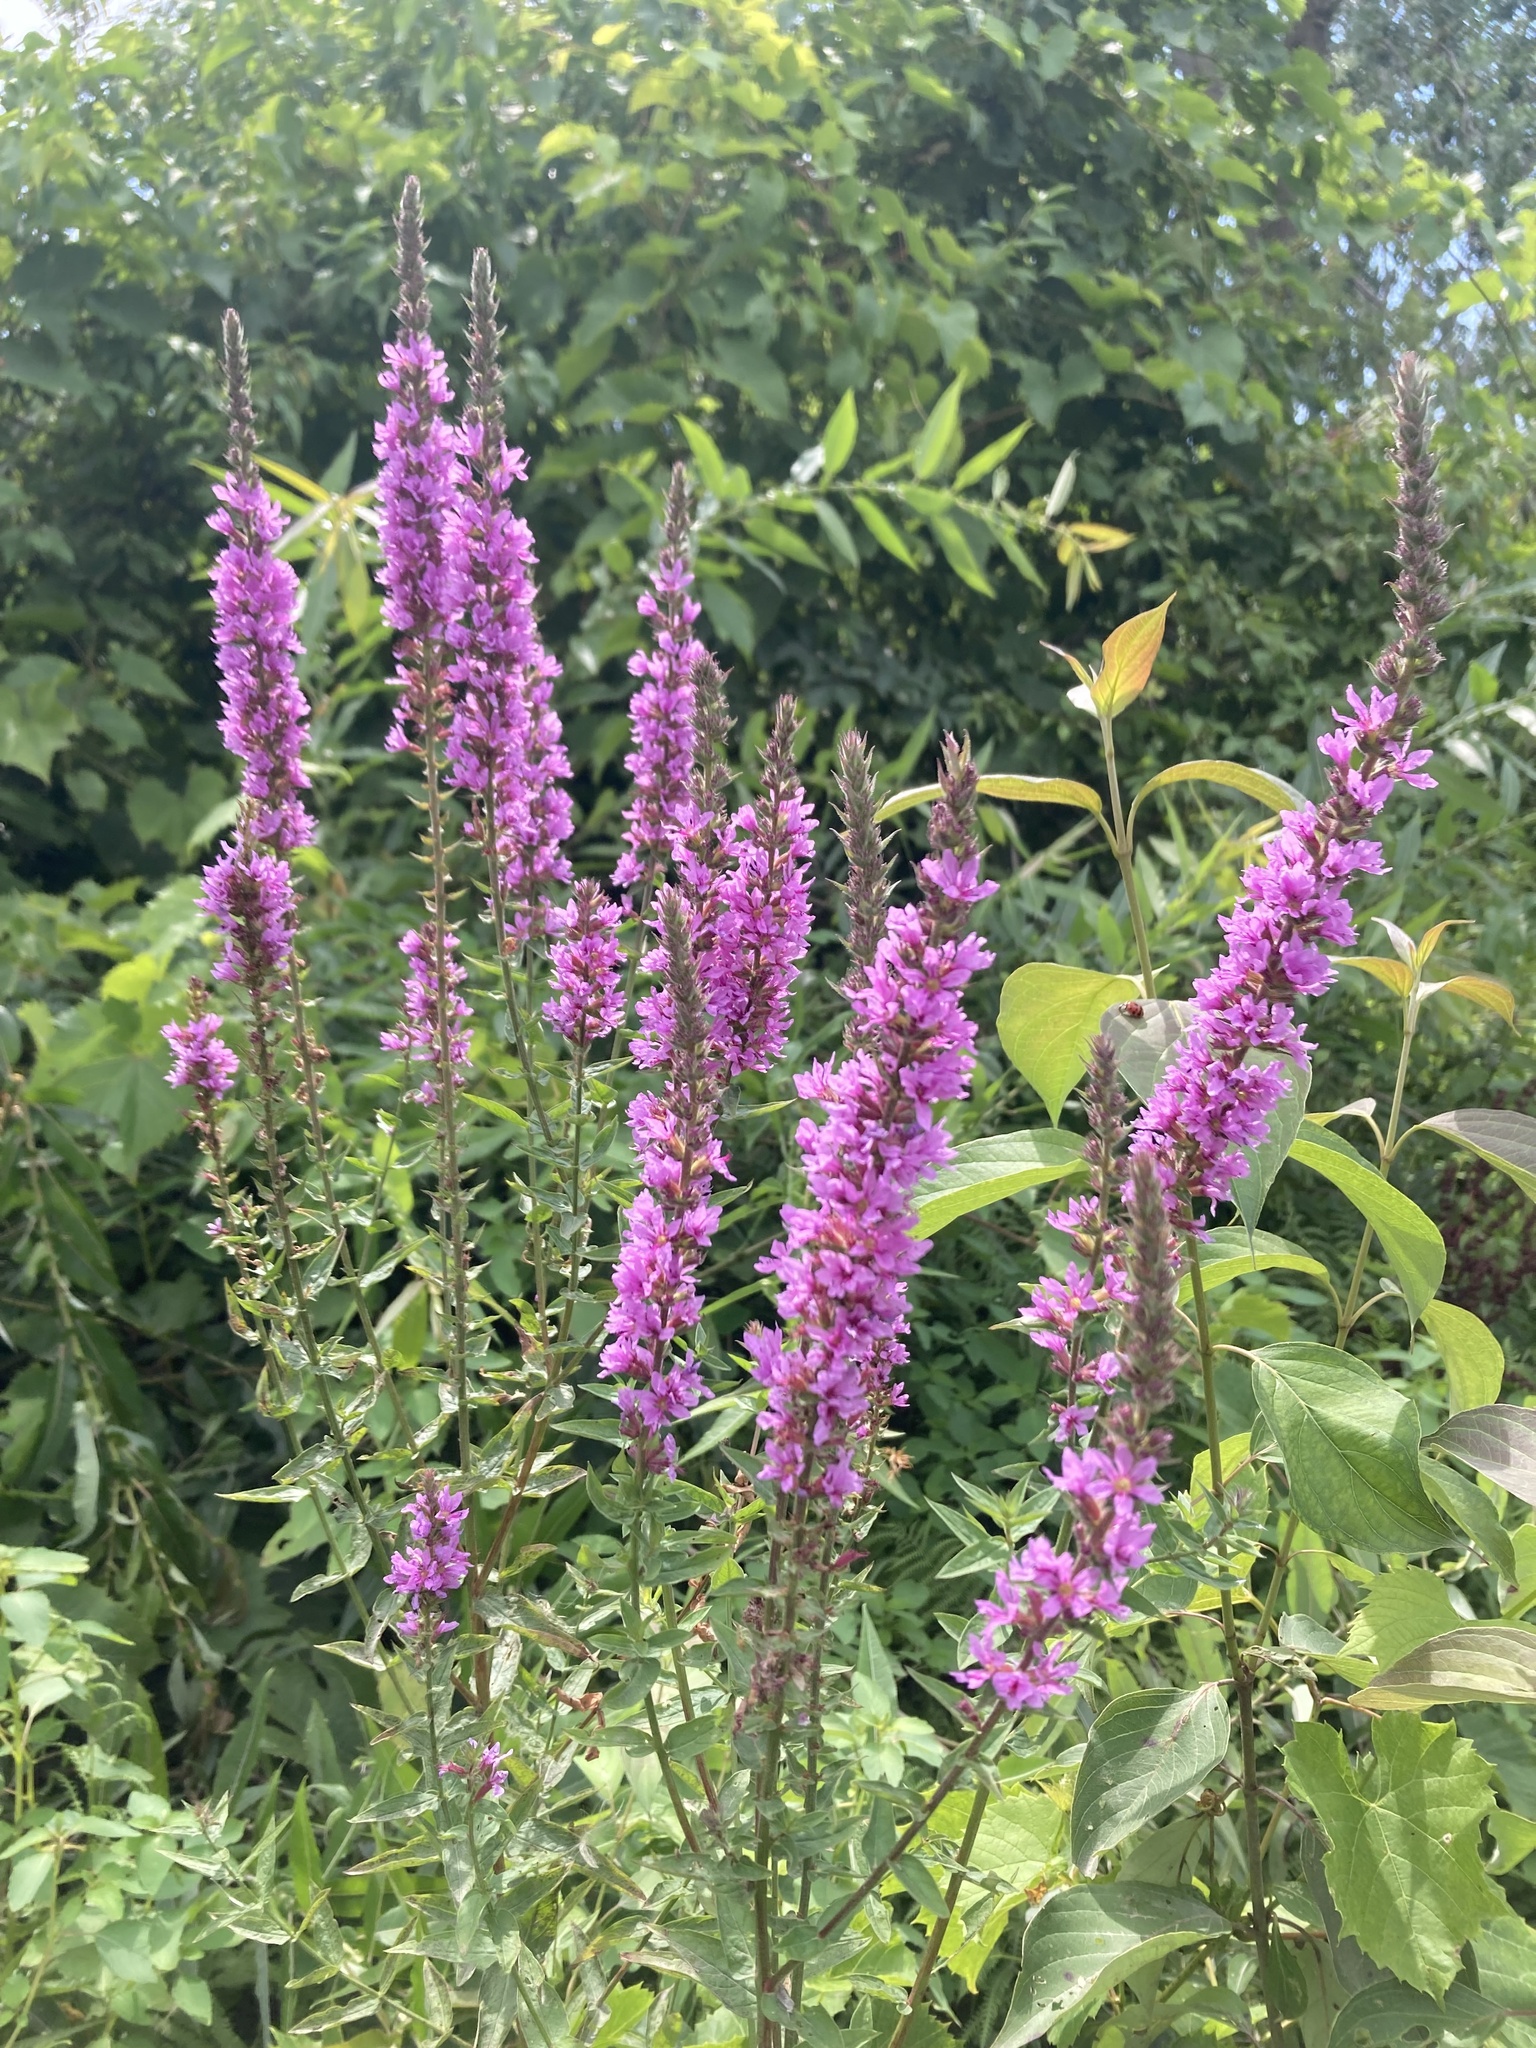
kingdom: Plantae
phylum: Tracheophyta
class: Magnoliopsida
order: Myrtales
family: Lythraceae
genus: Lythrum
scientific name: Lythrum salicaria
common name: Purple loosestrife
